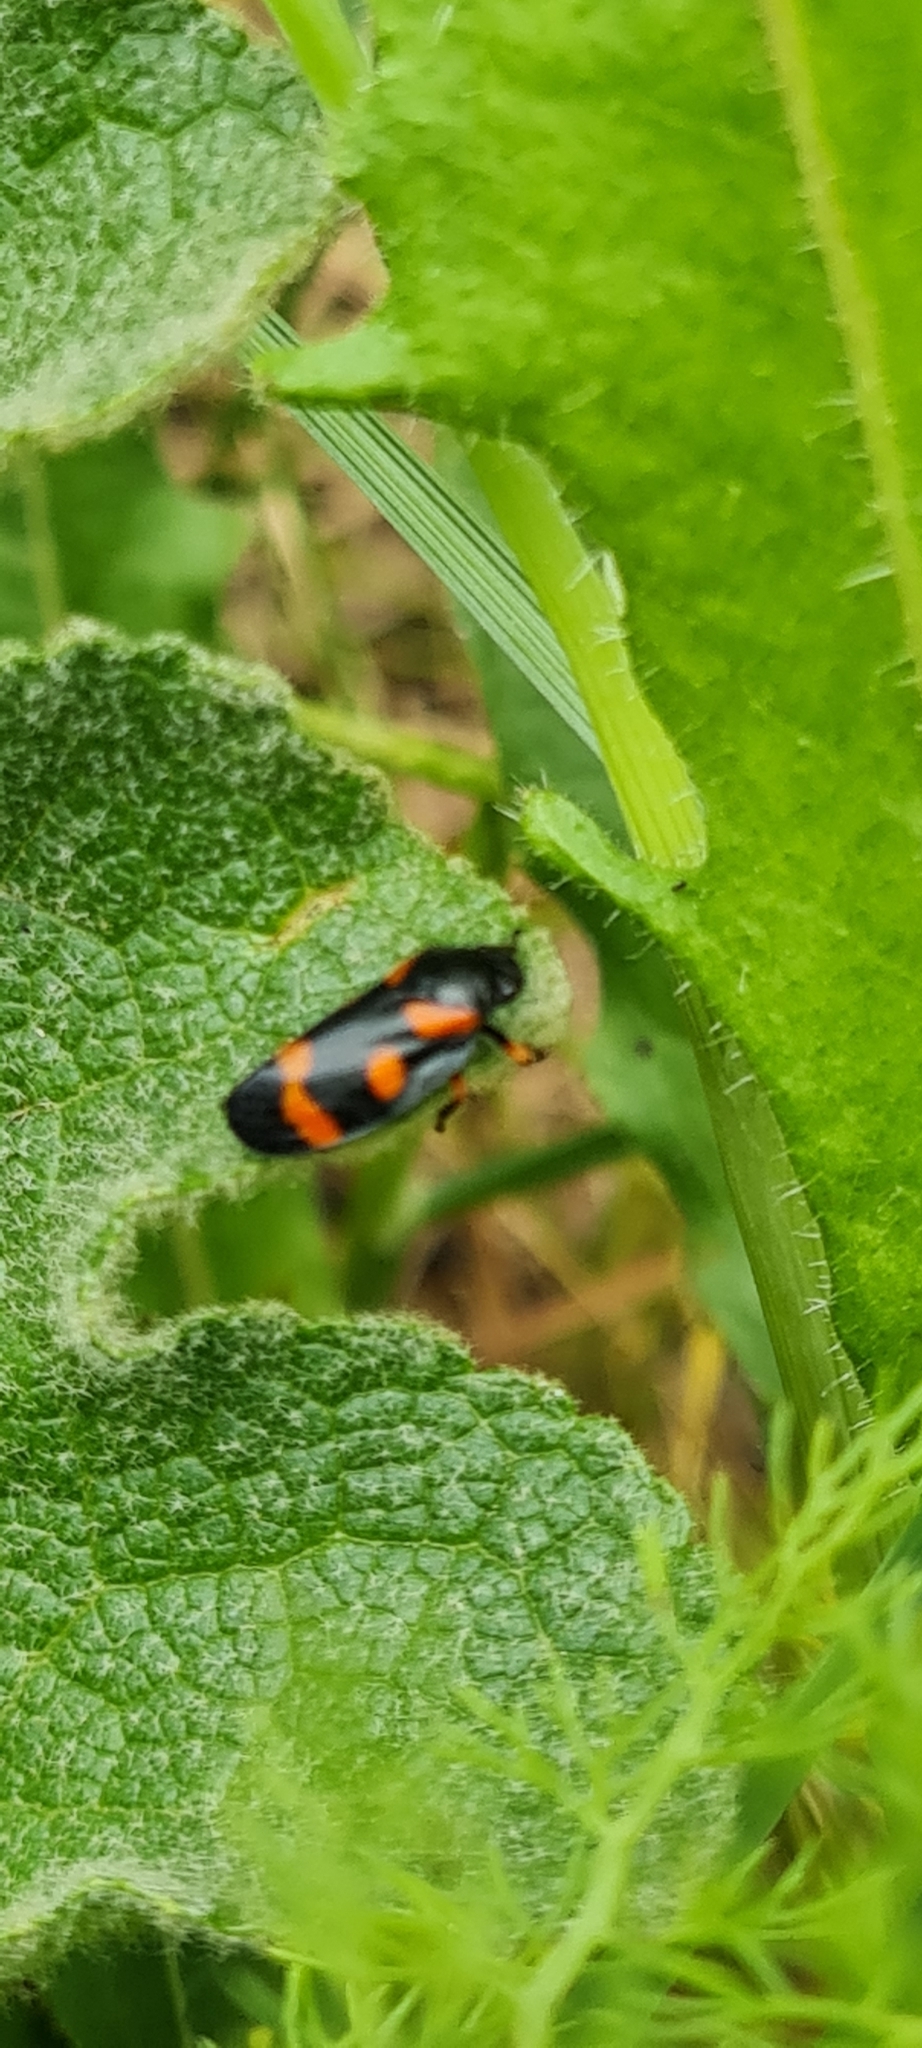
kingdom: Animalia
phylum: Arthropoda
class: Insecta
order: Hemiptera
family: Cercopidae
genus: Cercopis
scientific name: Cercopis intermedia
